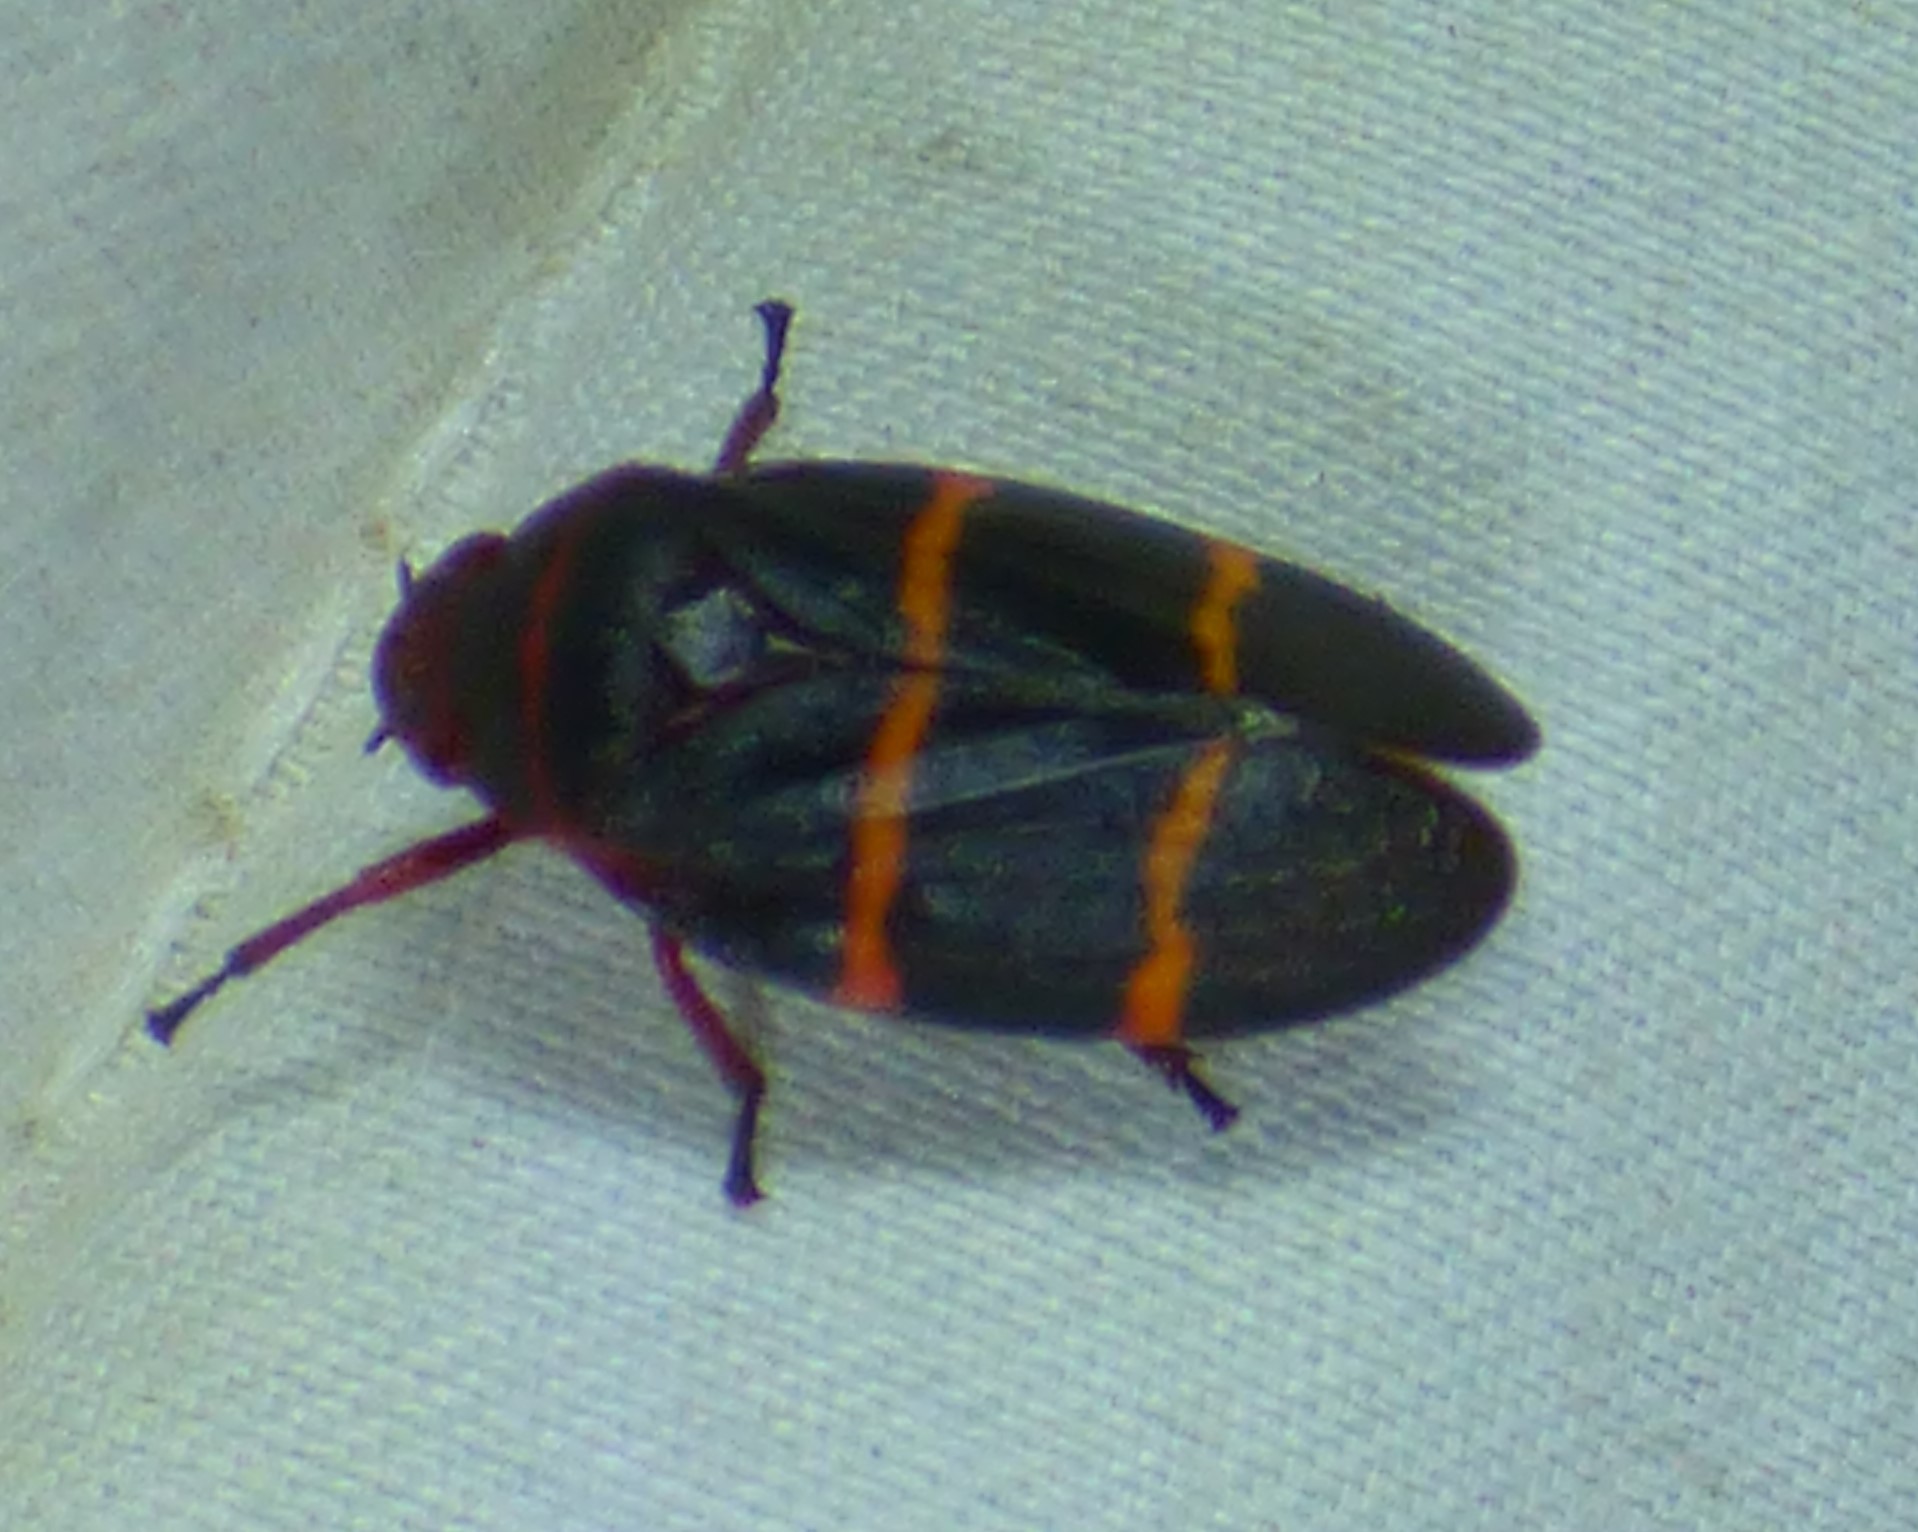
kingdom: Animalia
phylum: Arthropoda
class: Insecta
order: Hemiptera
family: Cercopidae
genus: Prosapia
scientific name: Prosapia bicincta
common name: Twolined spittlebug
